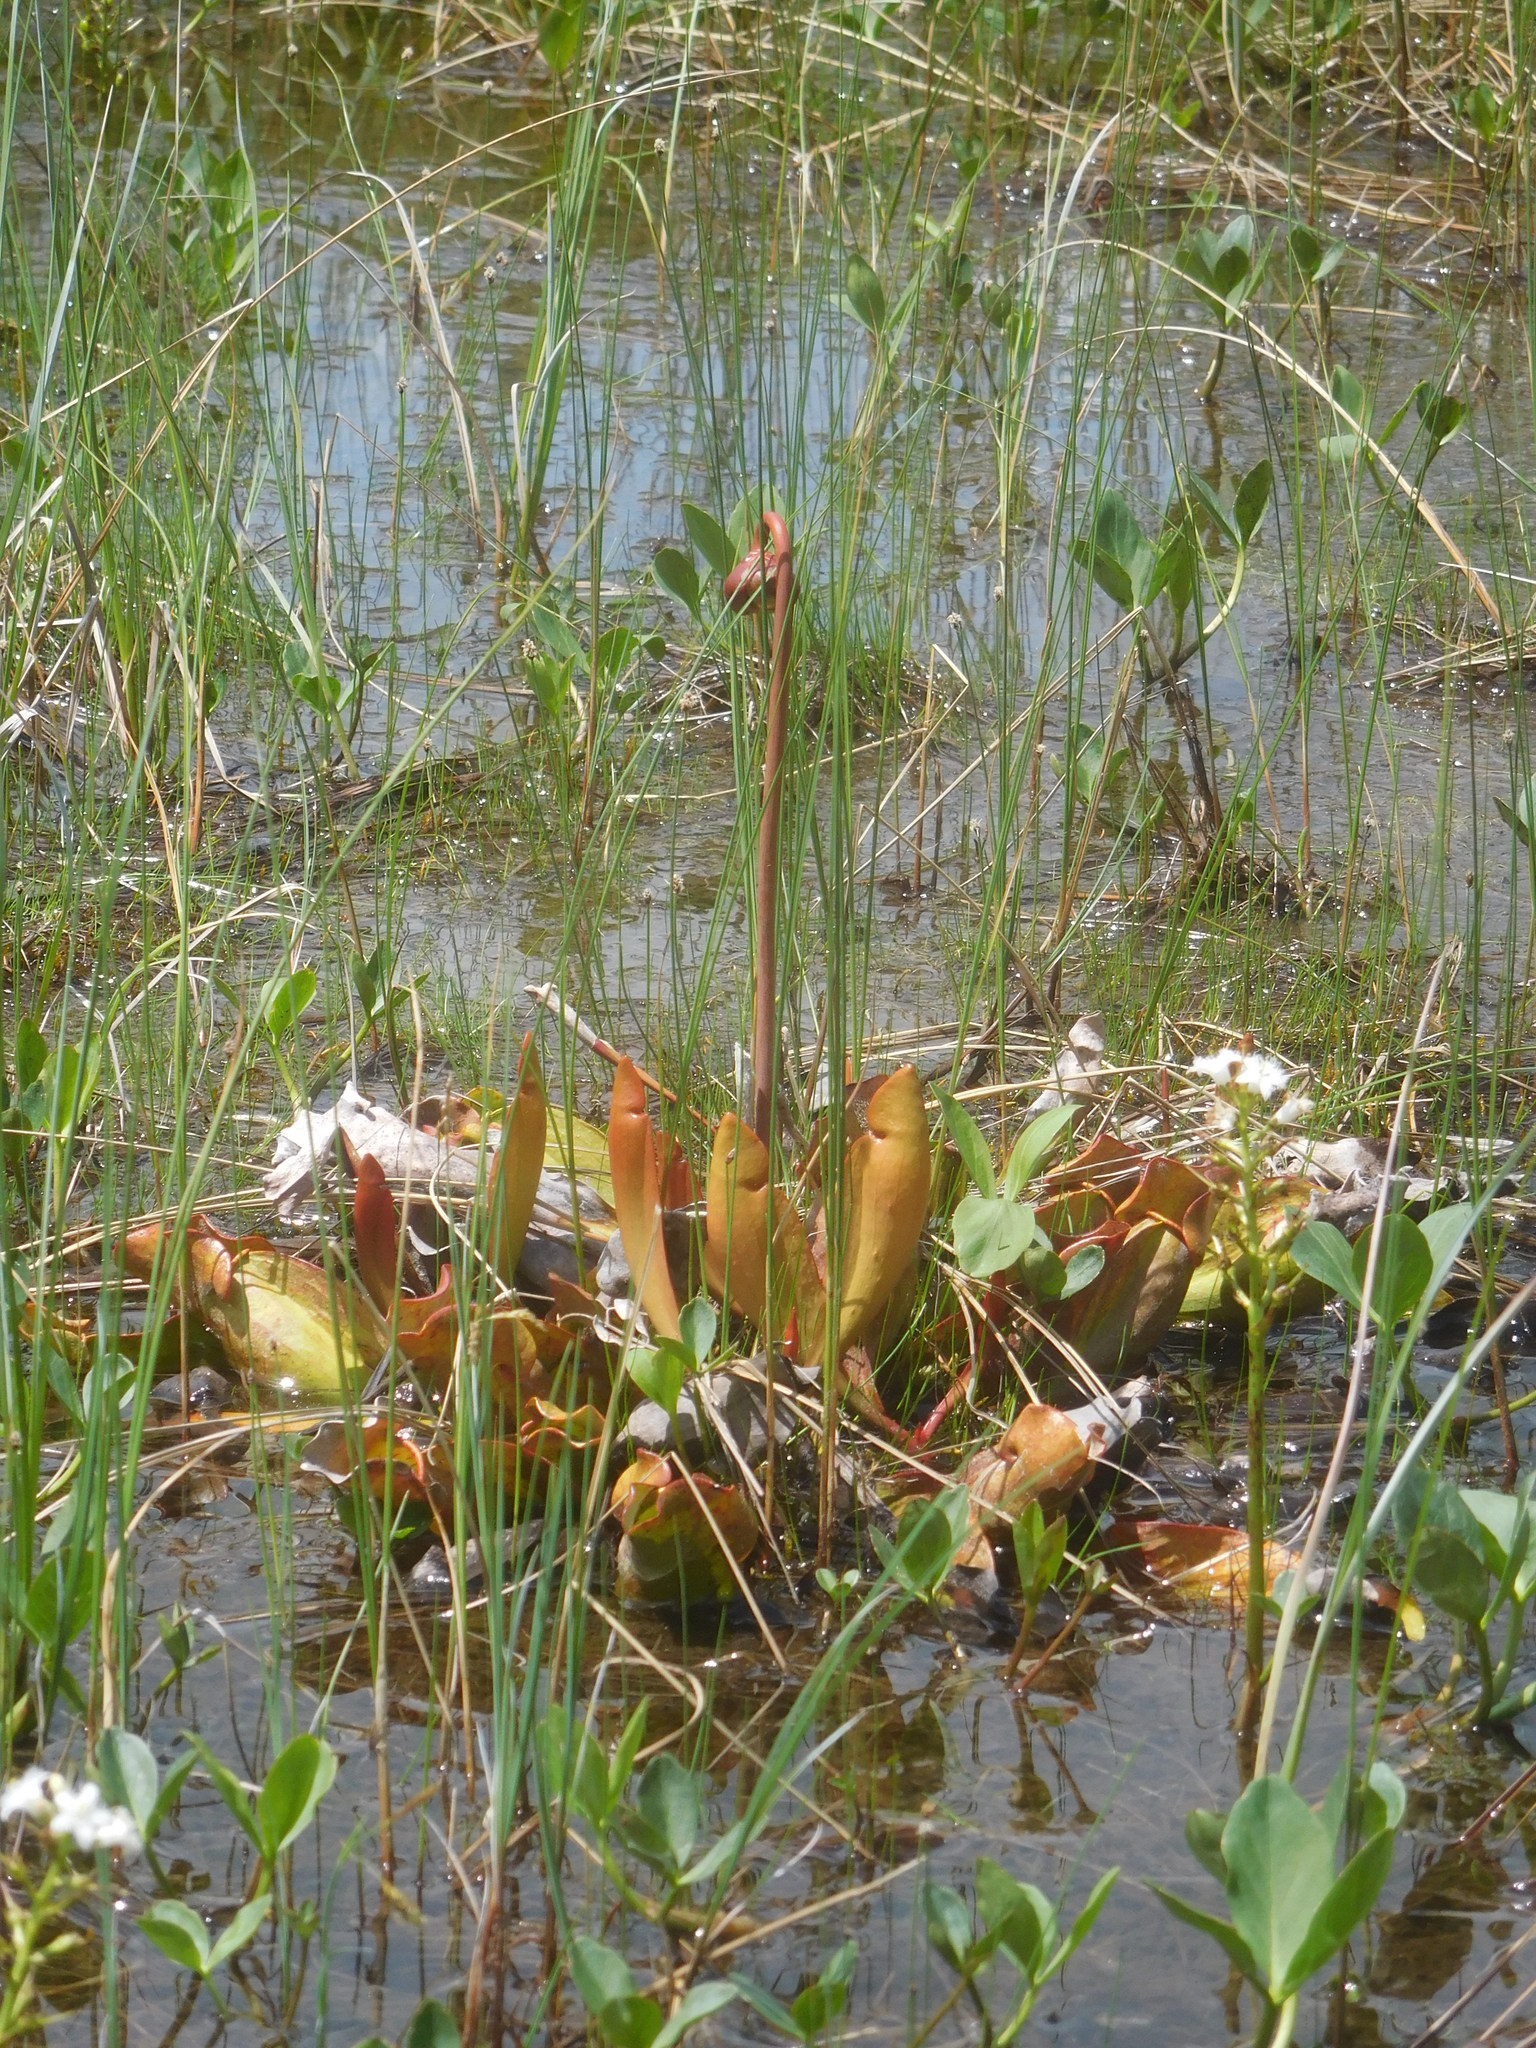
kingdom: Plantae
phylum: Tracheophyta
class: Magnoliopsida
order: Ericales
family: Sarraceniaceae
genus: Sarracenia
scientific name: Sarracenia purpurea
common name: Pitcherplant
